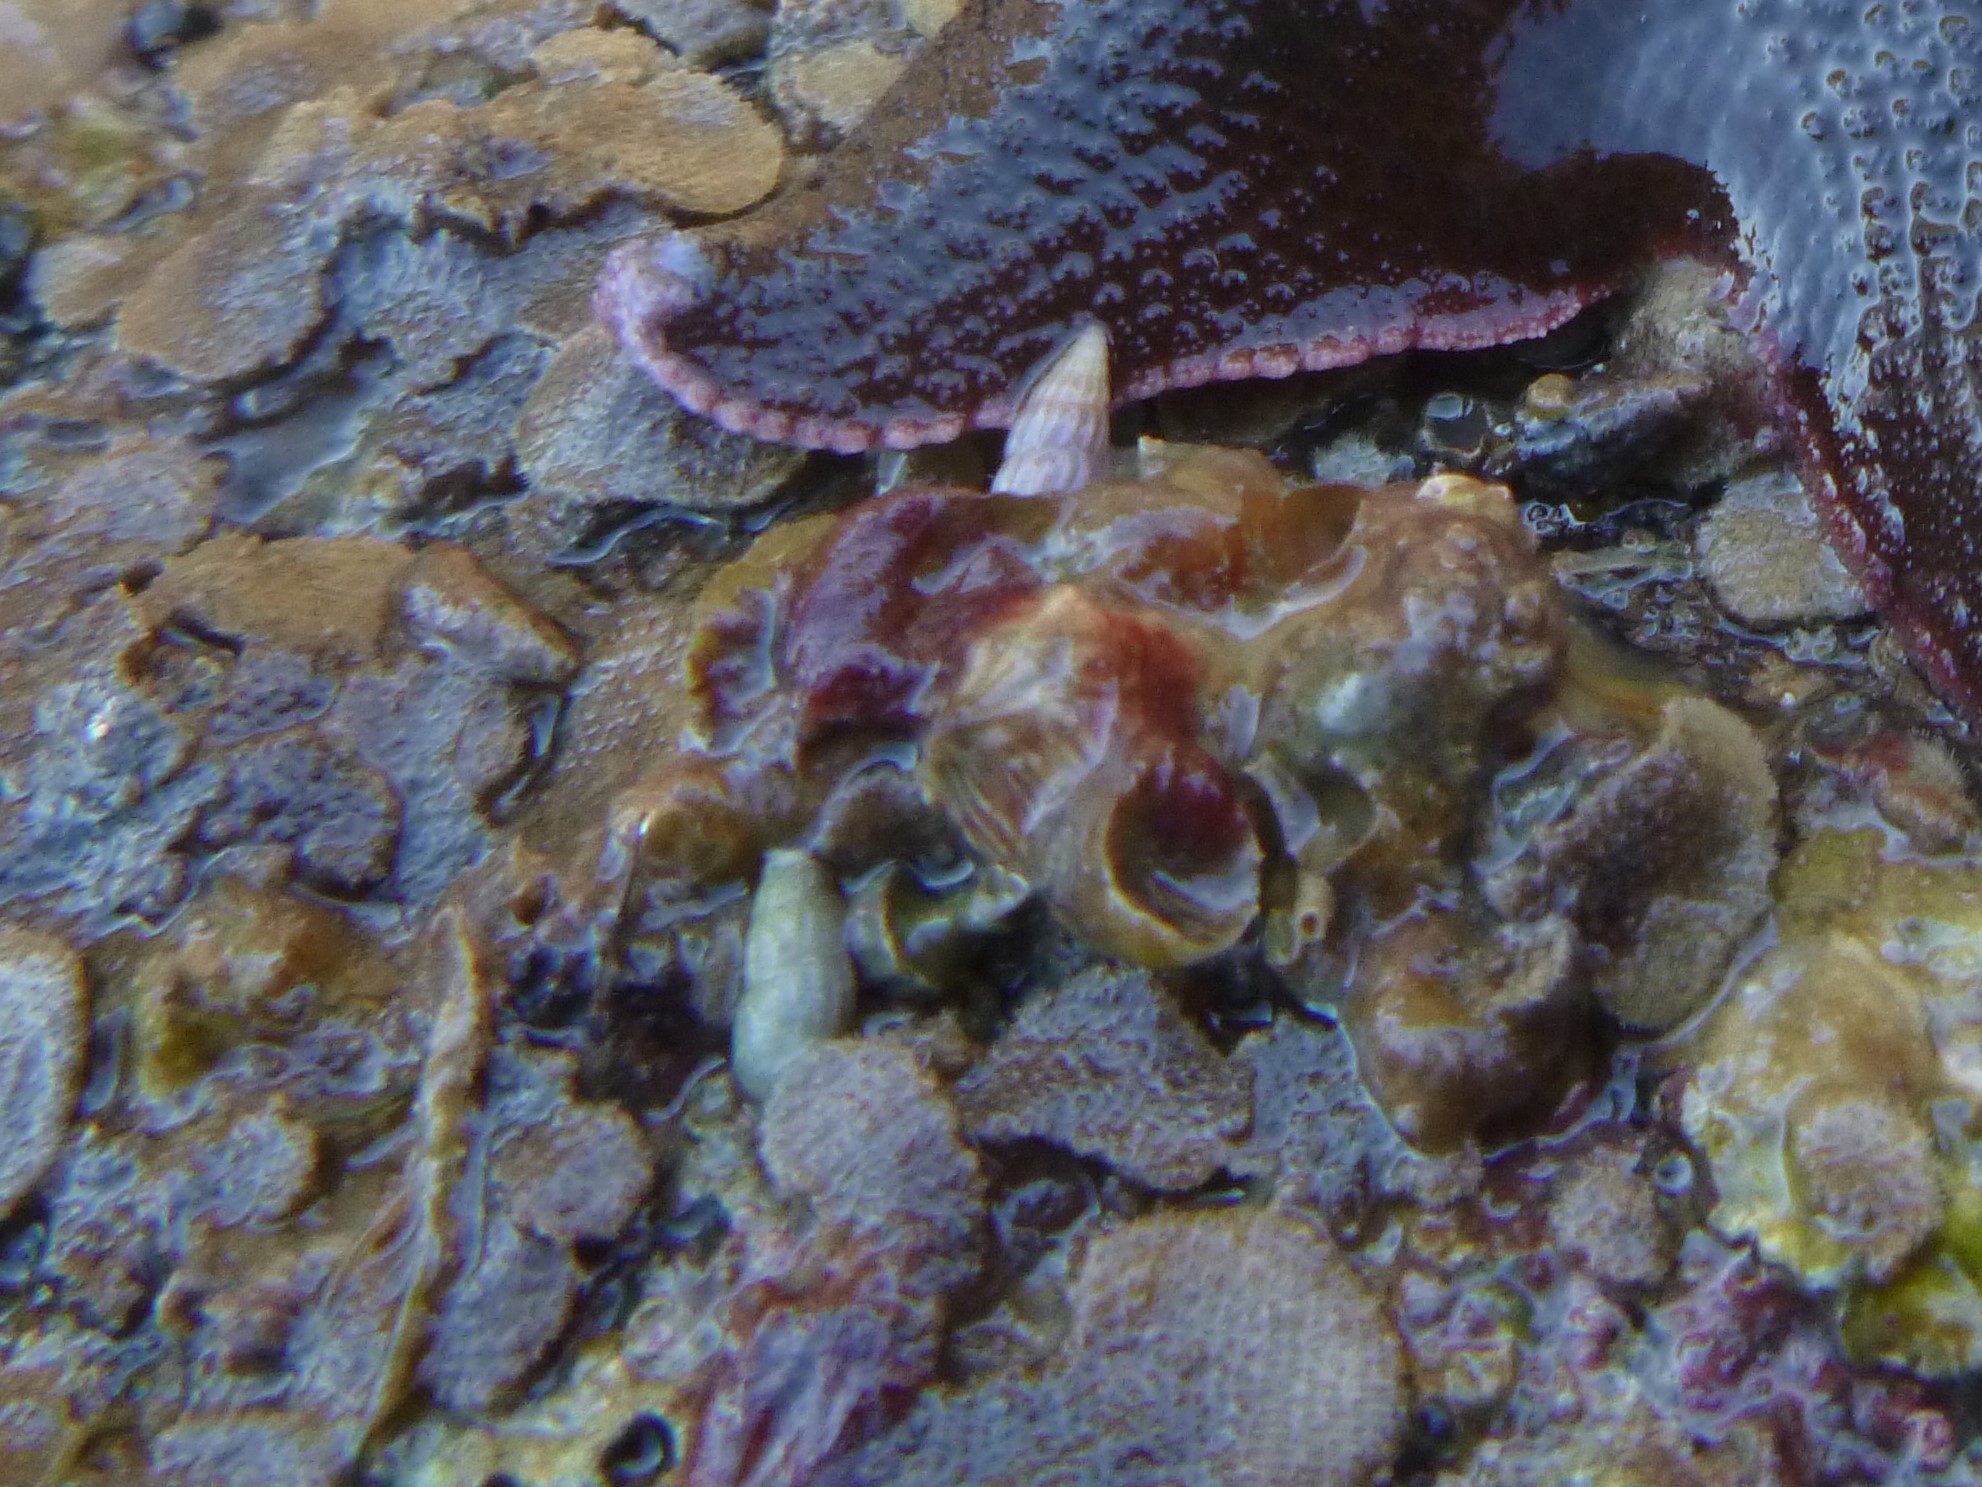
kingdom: Animalia
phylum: Mollusca
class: Gastropoda
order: Littorinimorpha
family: Rissoinidae
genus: Rissoina
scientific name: Rissoina chathamensis
